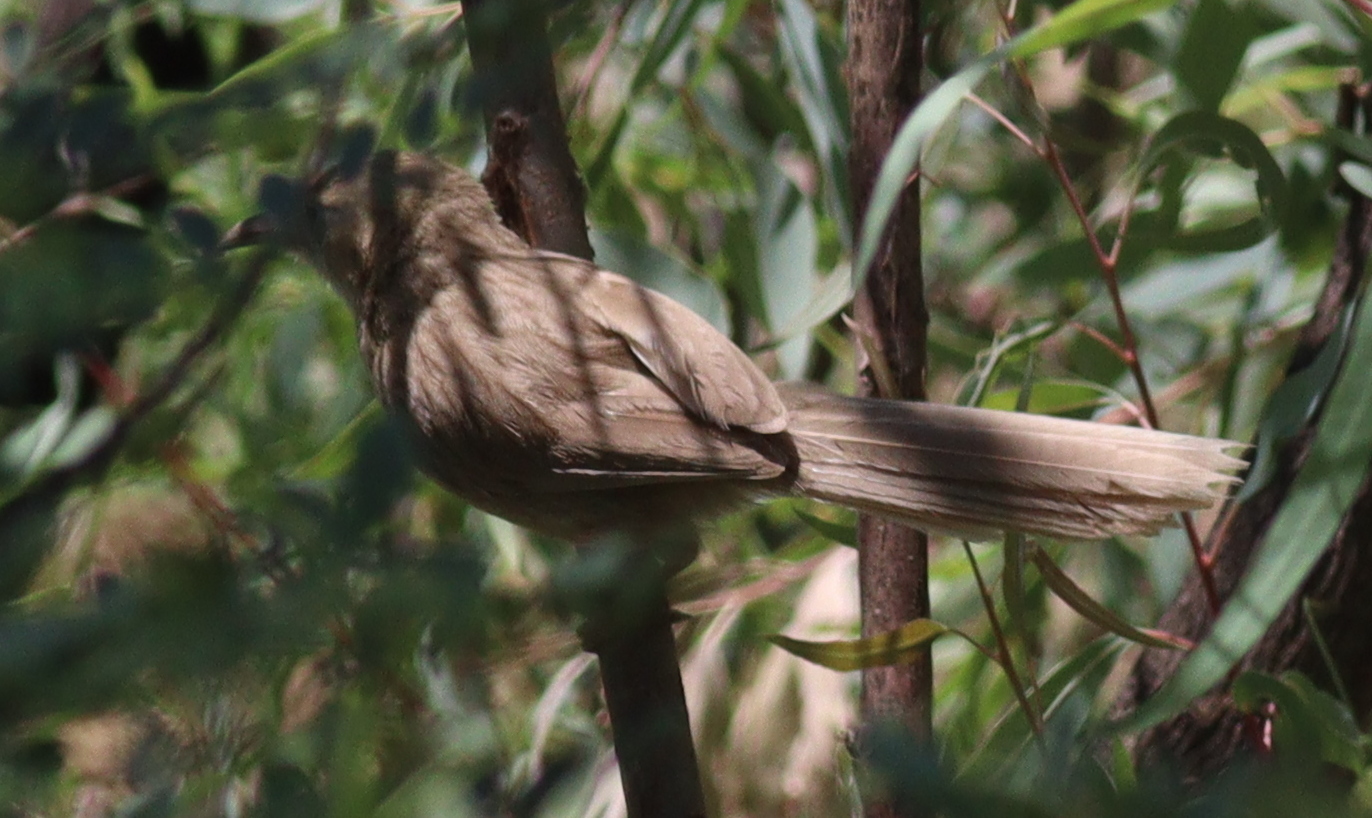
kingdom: Animalia
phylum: Chordata
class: Aves
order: Passeriformes
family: Leiothrichidae
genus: Turdoides
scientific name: Turdoides altirostris
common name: Iraq babbler
